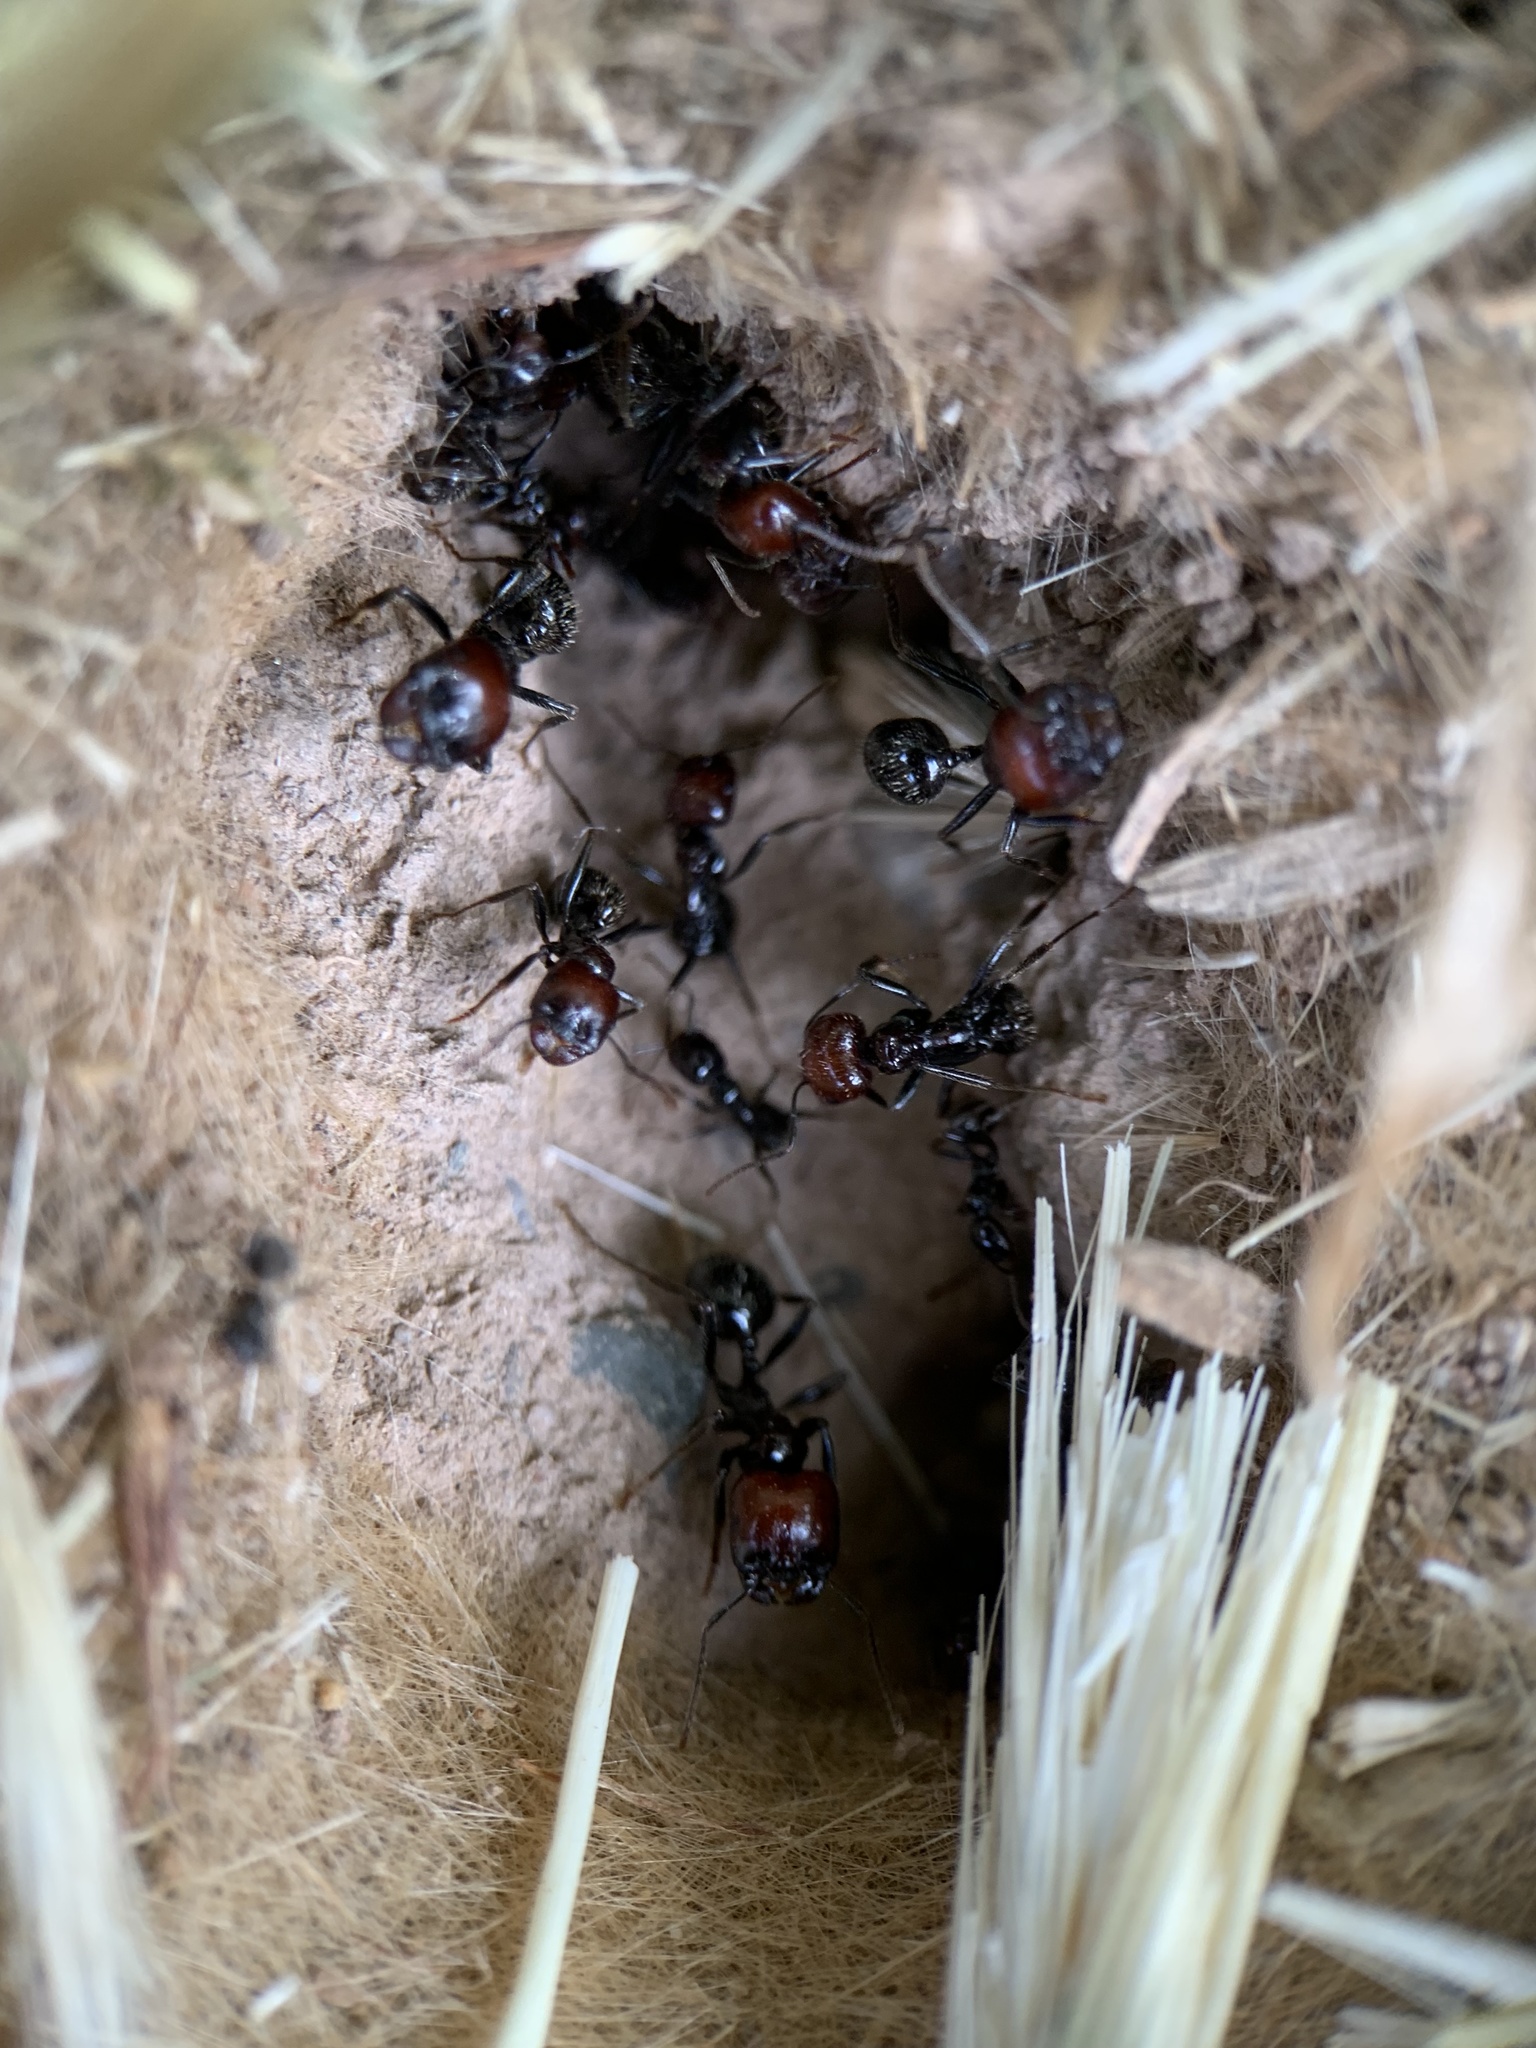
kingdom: Animalia
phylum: Arthropoda
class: Insecta
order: Hymenoptera
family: Formicidae
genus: Messor
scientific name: Messor barbarus
